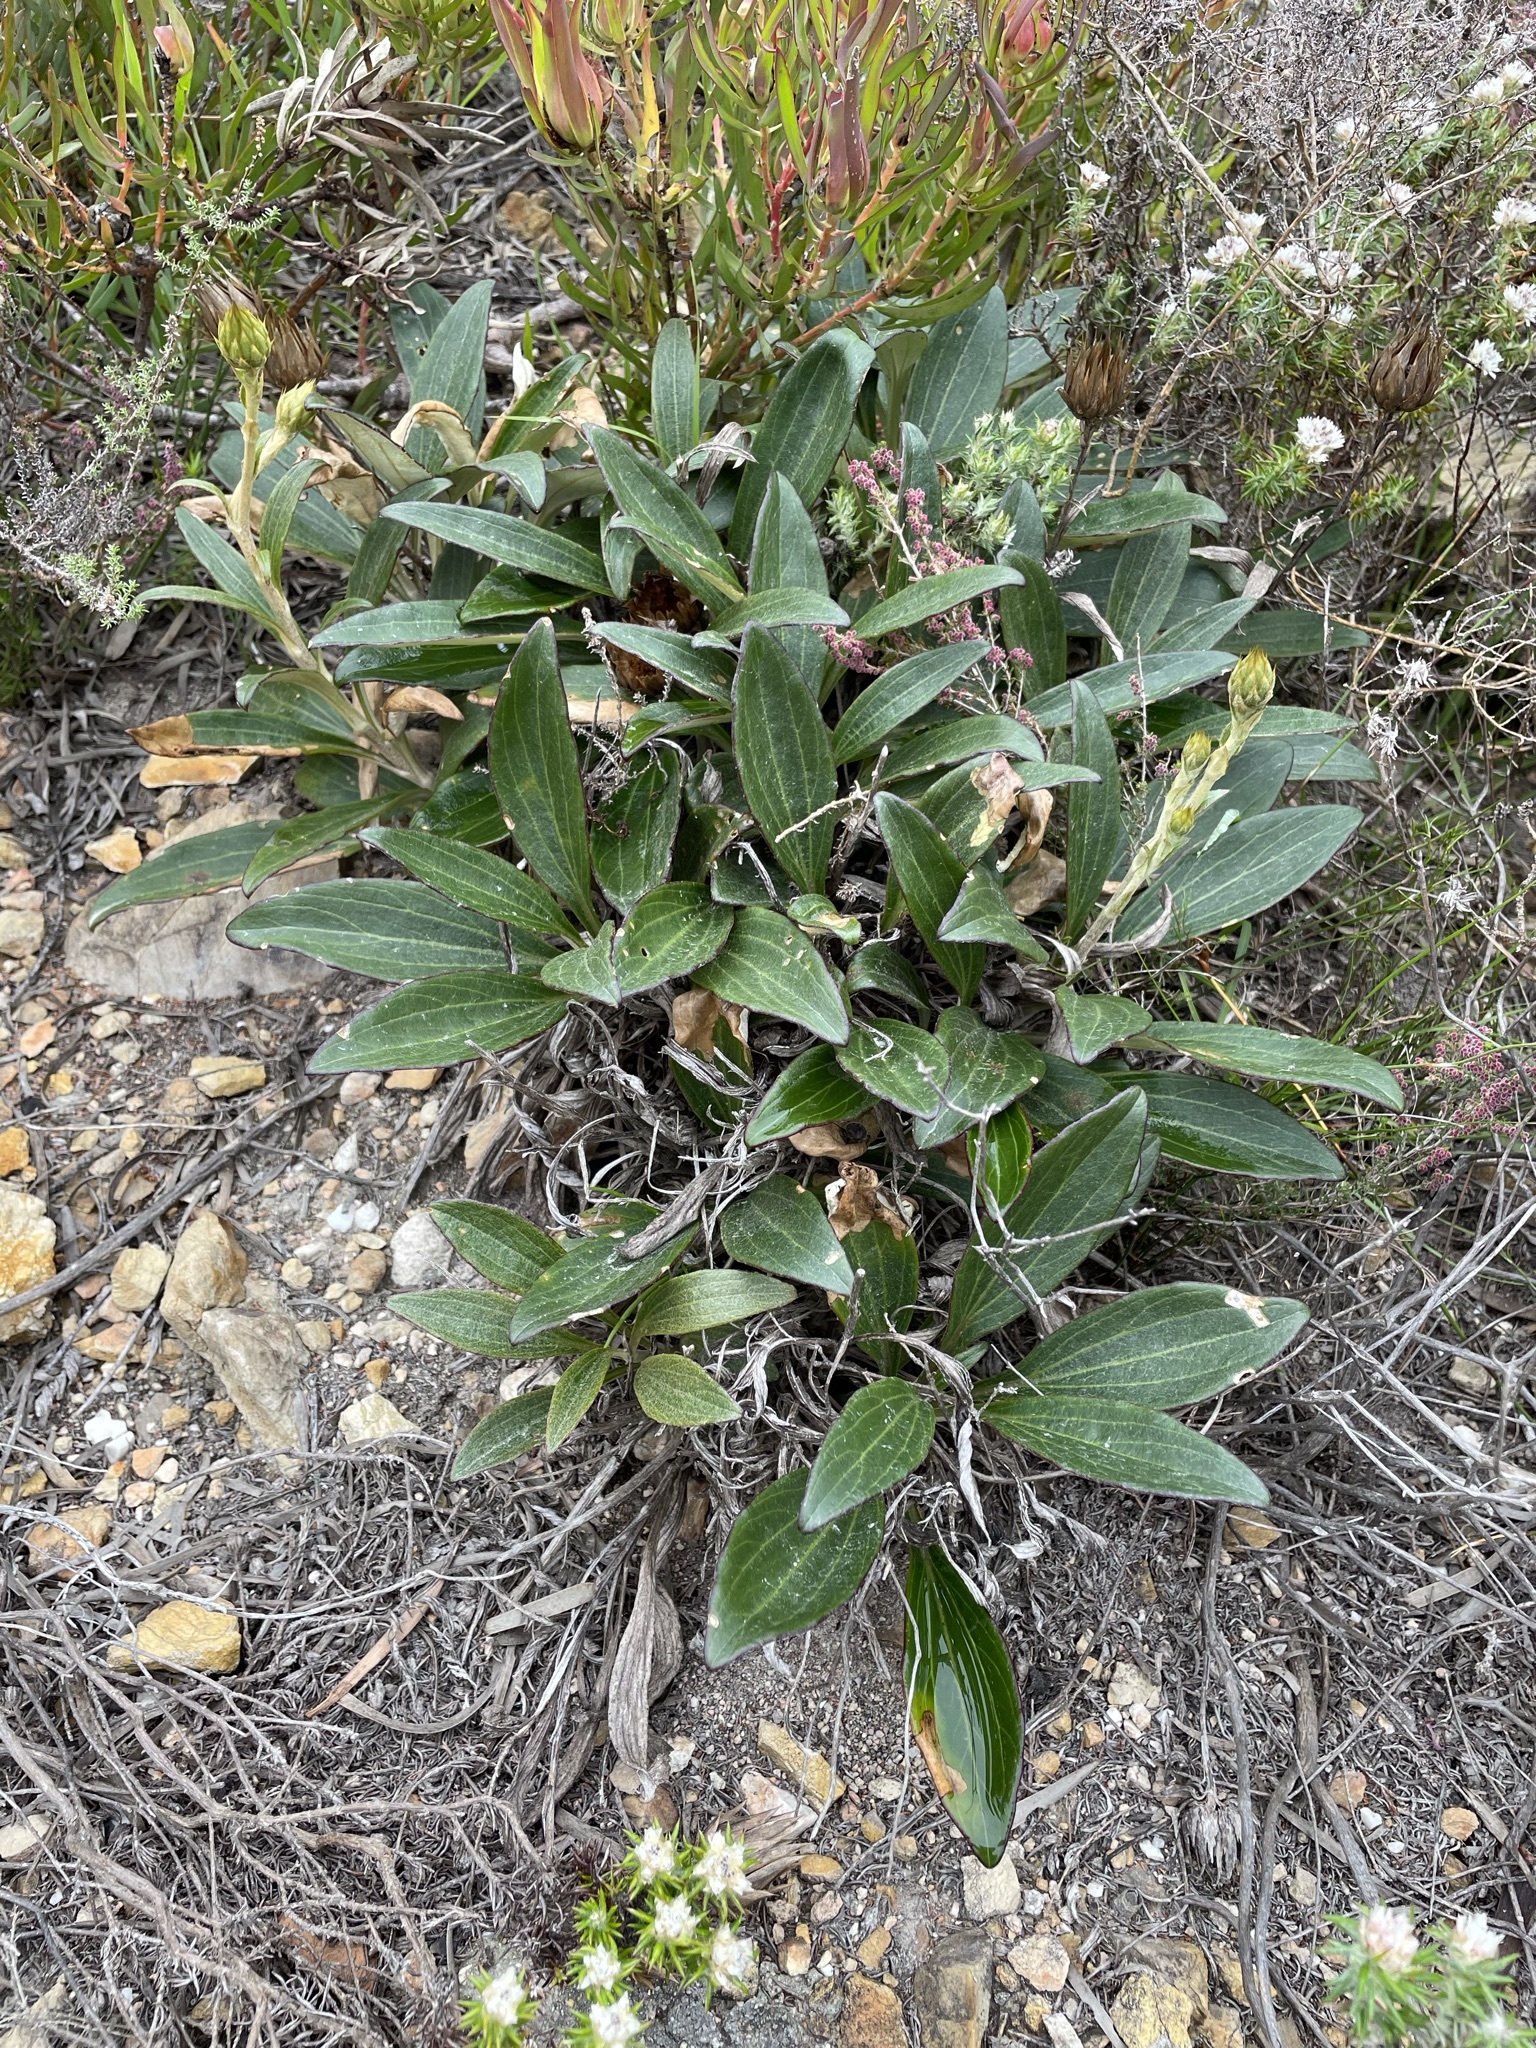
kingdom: Plantae
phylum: Tracheophyta
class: Magnoliopsida
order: Asterales
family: Asteraceae
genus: Berkheya
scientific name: Berkheya herbacea
